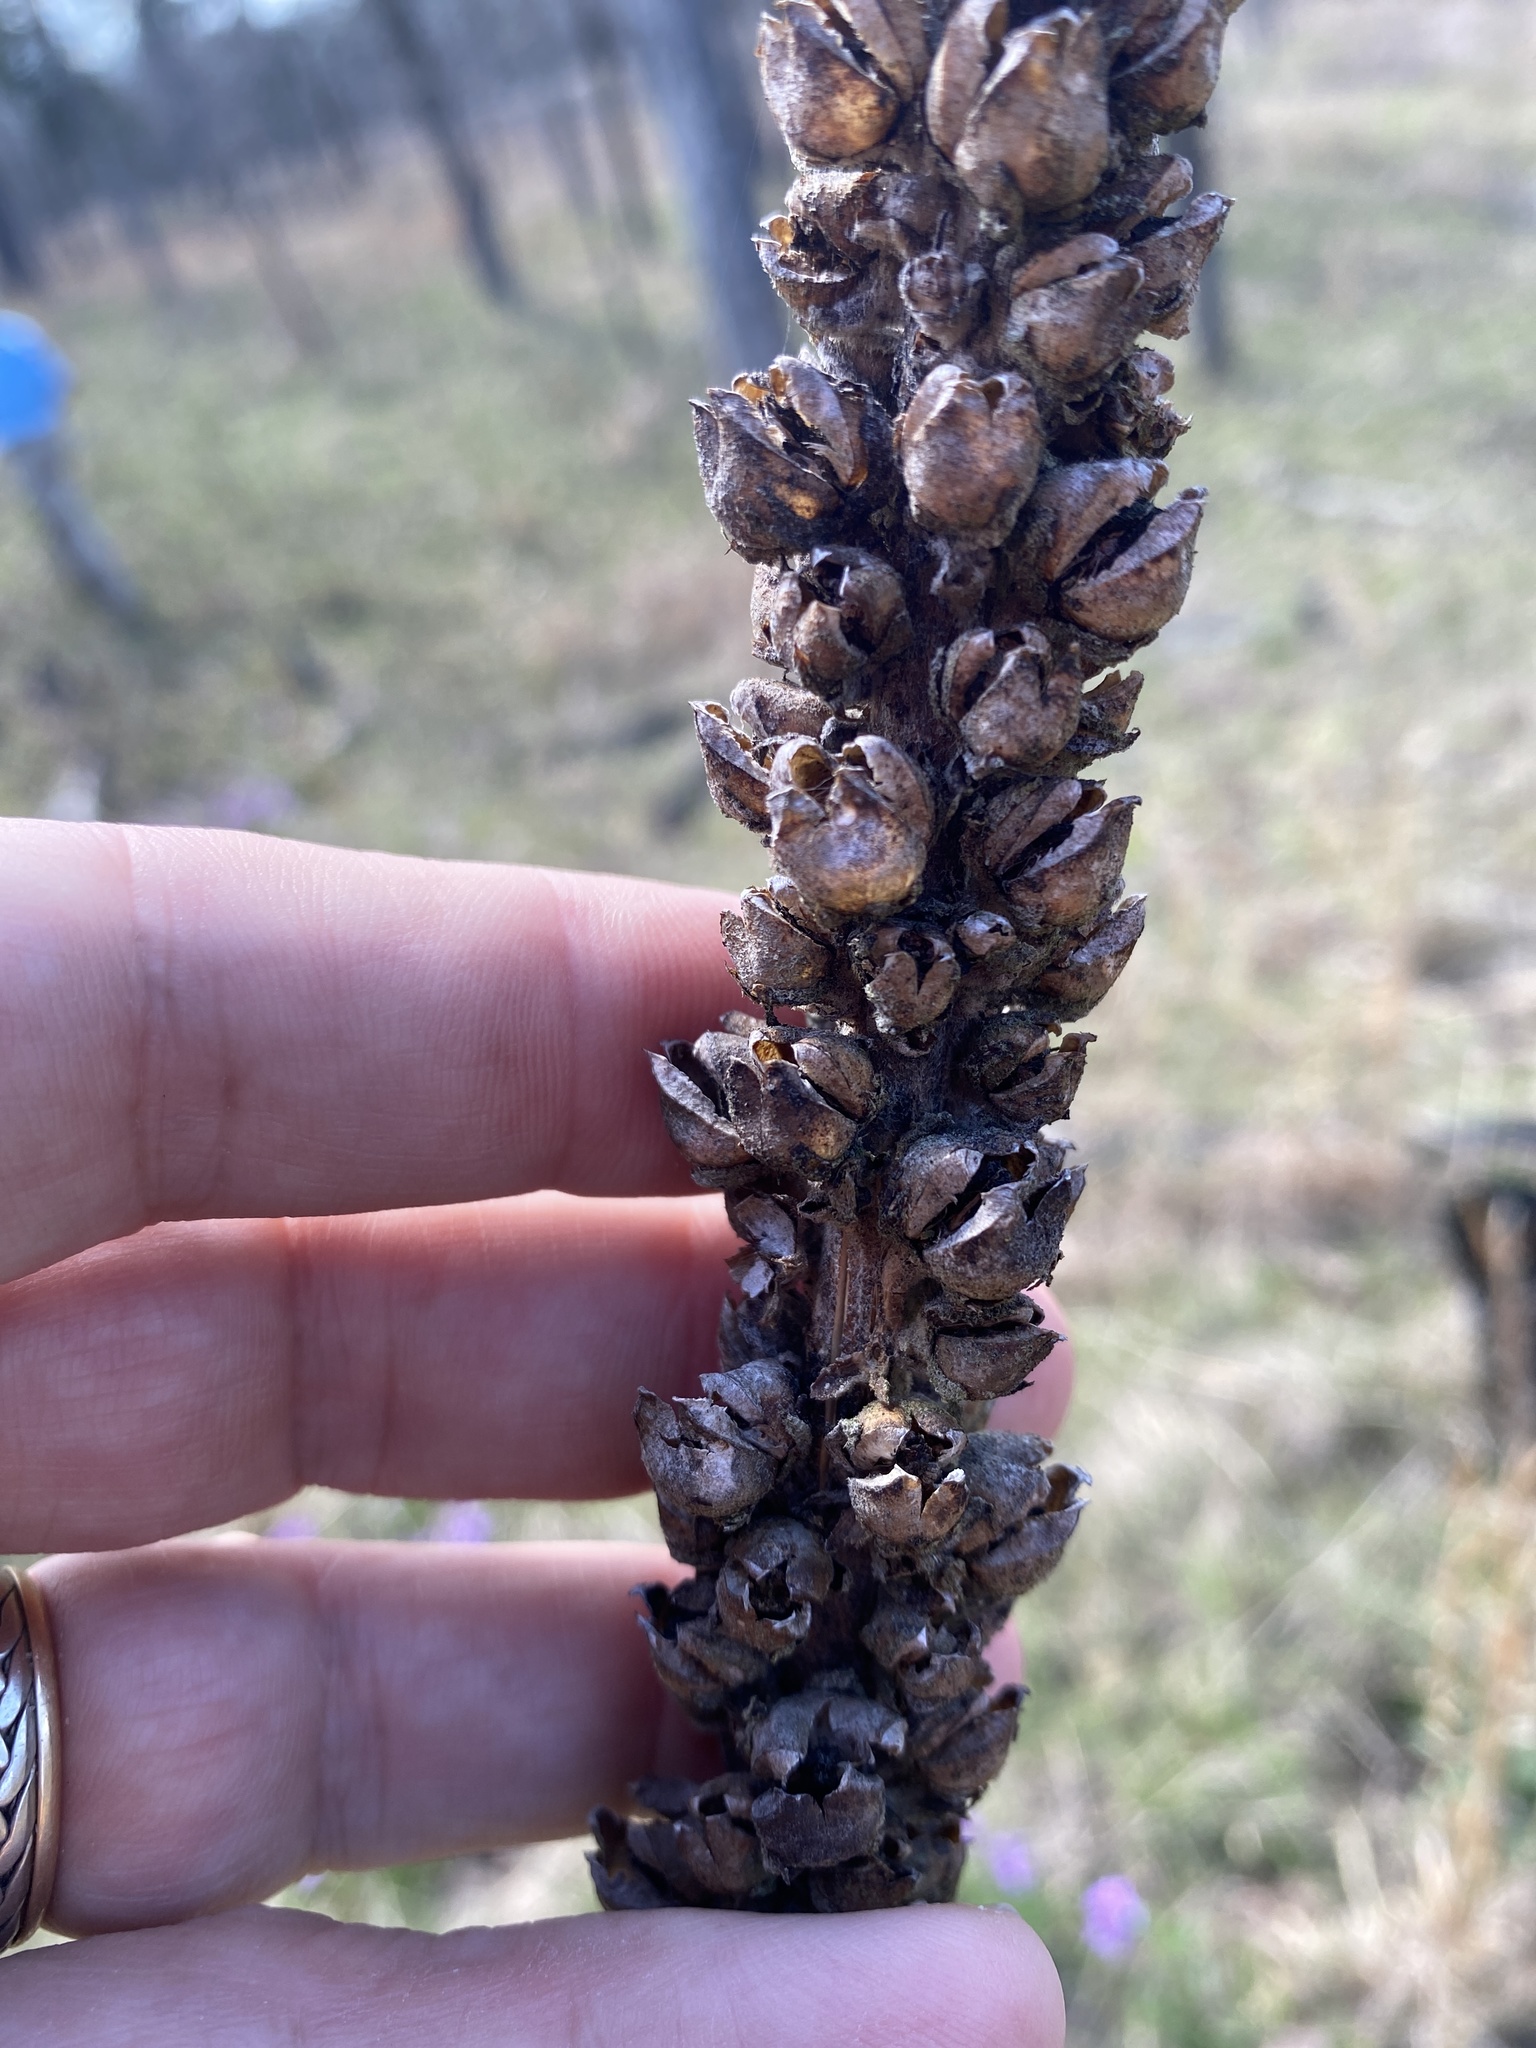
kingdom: Plantae
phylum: Tracheophyta
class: Magnoliopsida
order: Lamiales
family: Scrophulariaceae
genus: Verbascum
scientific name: Verbascum thapsus
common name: Common mullein
